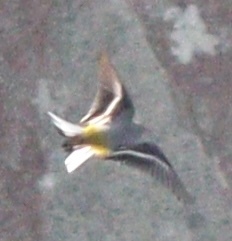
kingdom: Animalia
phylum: Chordata
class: Aves
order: Passeriformes
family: Motacillidae
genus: Motacilla
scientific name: Motacilla cinerea
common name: Grey wagtail
